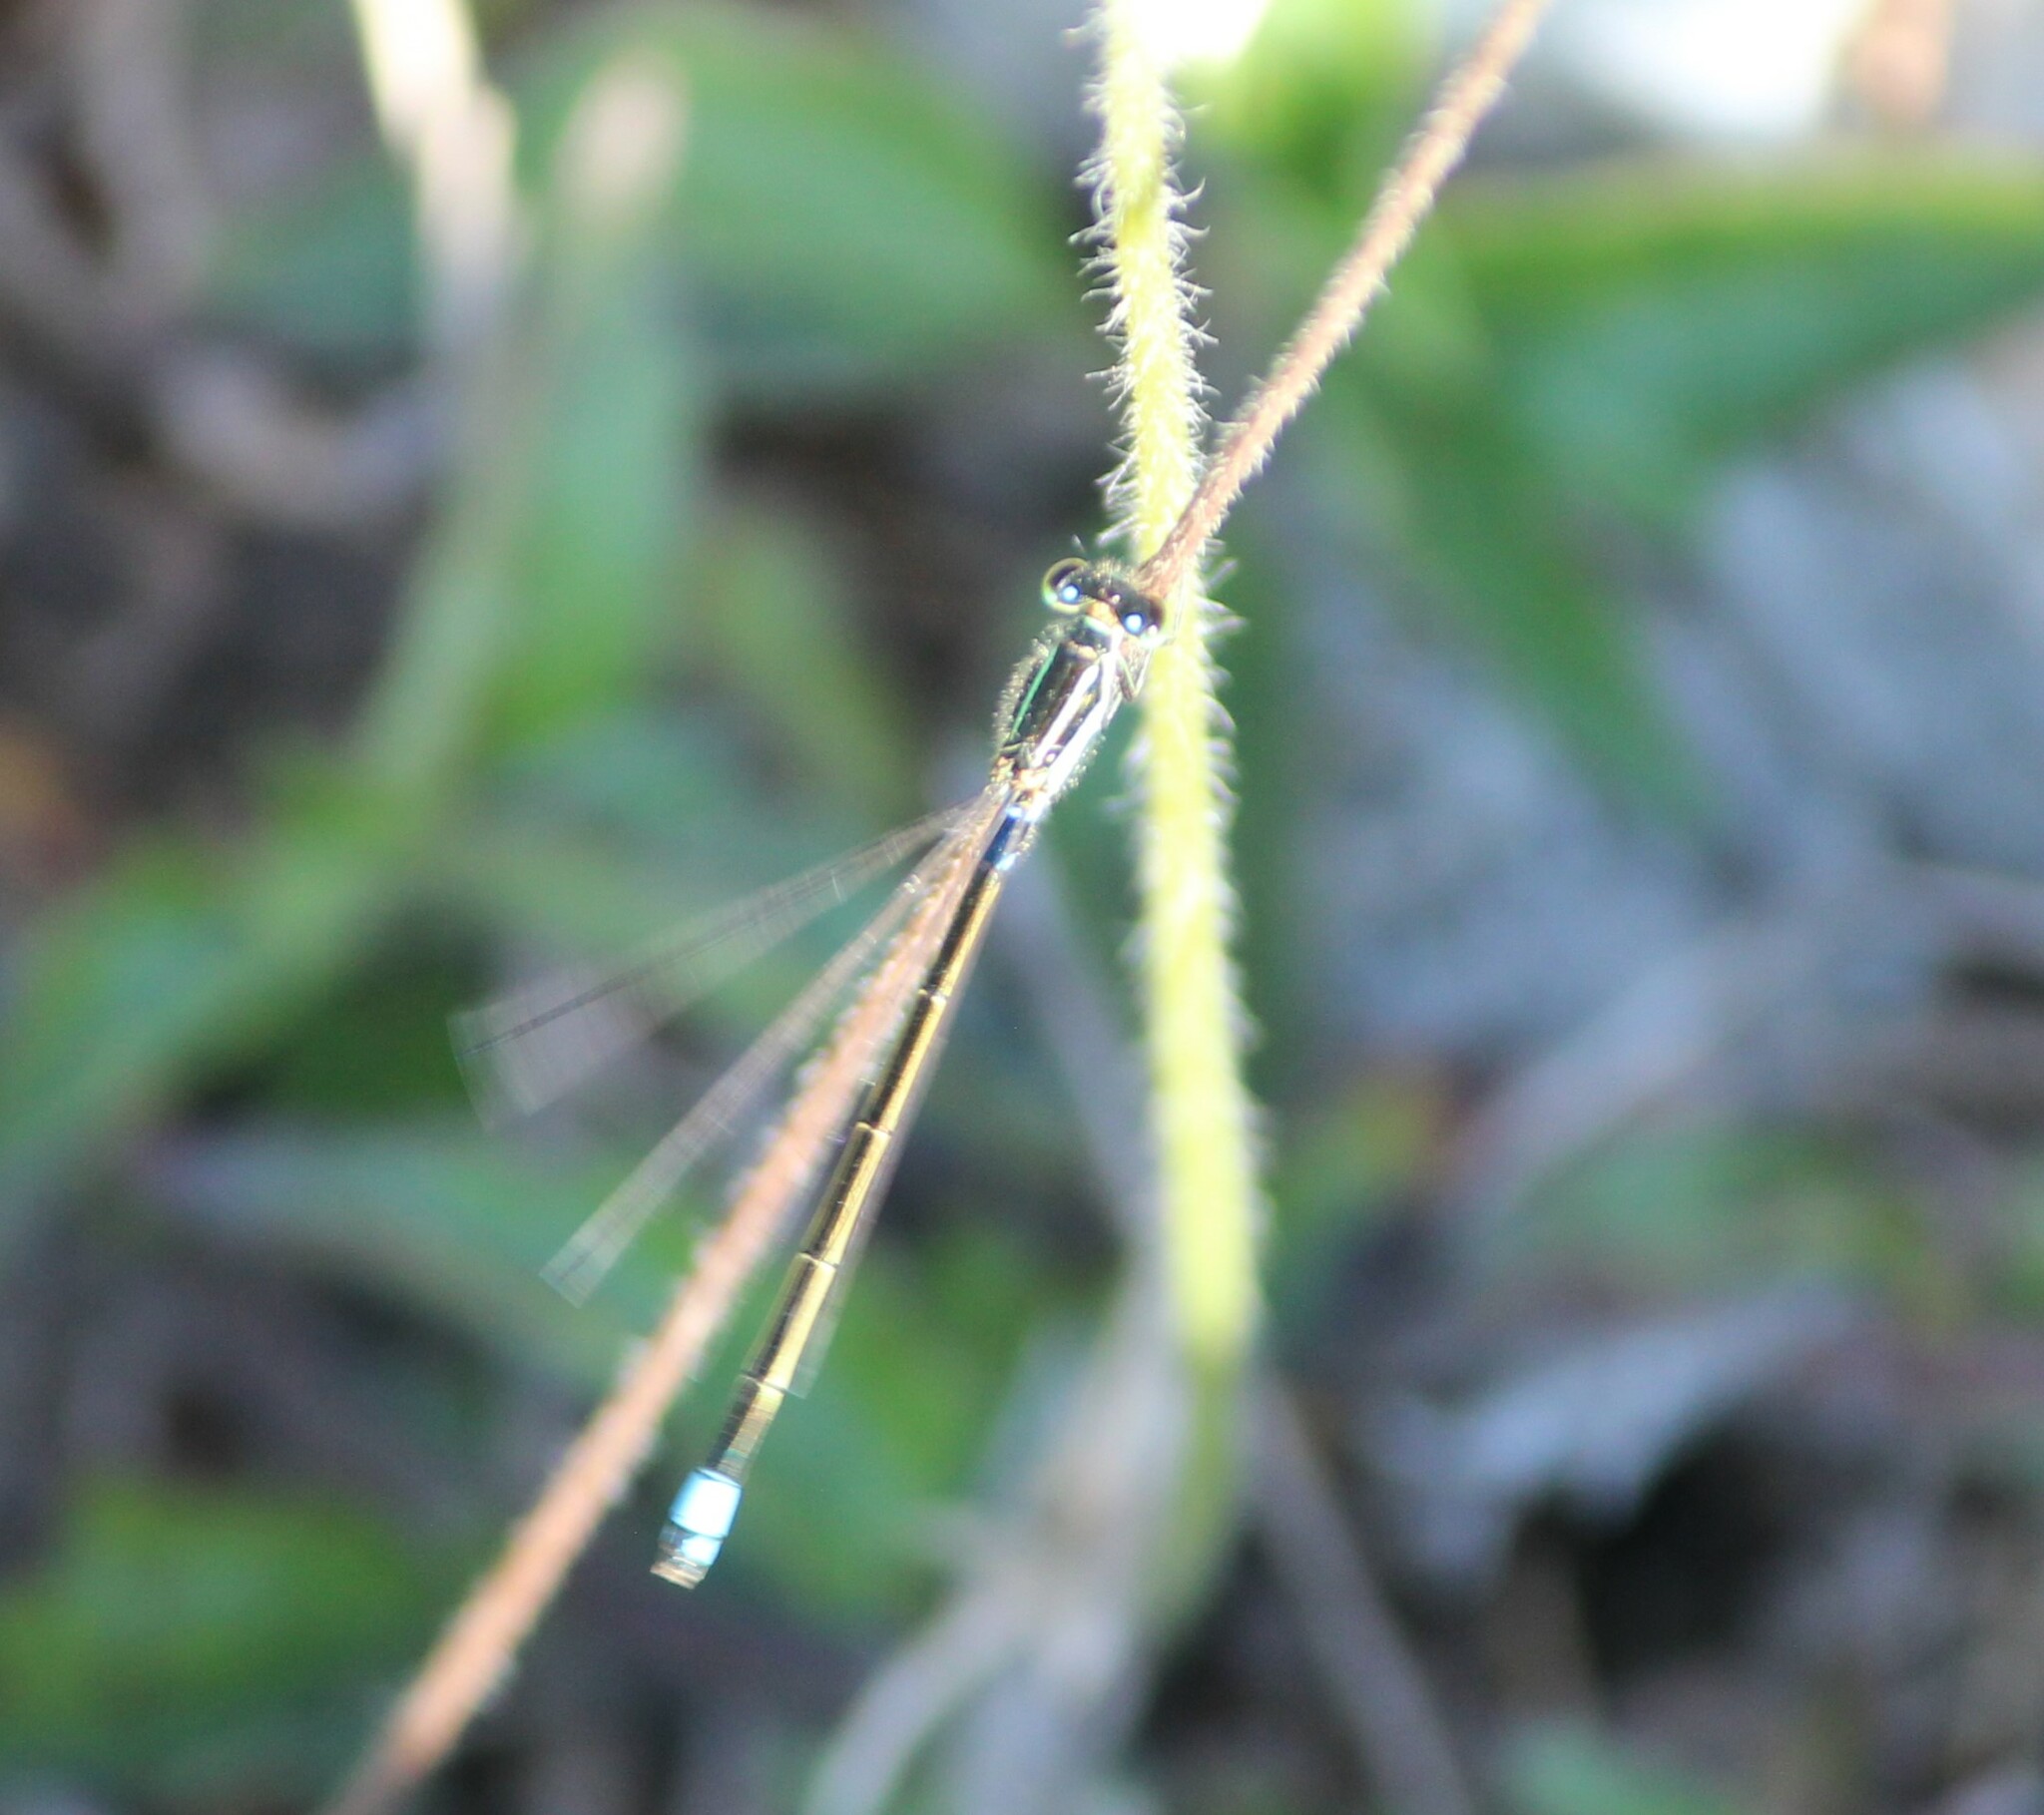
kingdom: Animalia
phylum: Arthropoda
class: Insecta
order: Odonata
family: Coenagrionidae
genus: Ischnura
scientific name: Ischnura senegalensis
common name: Tropical bluetail
